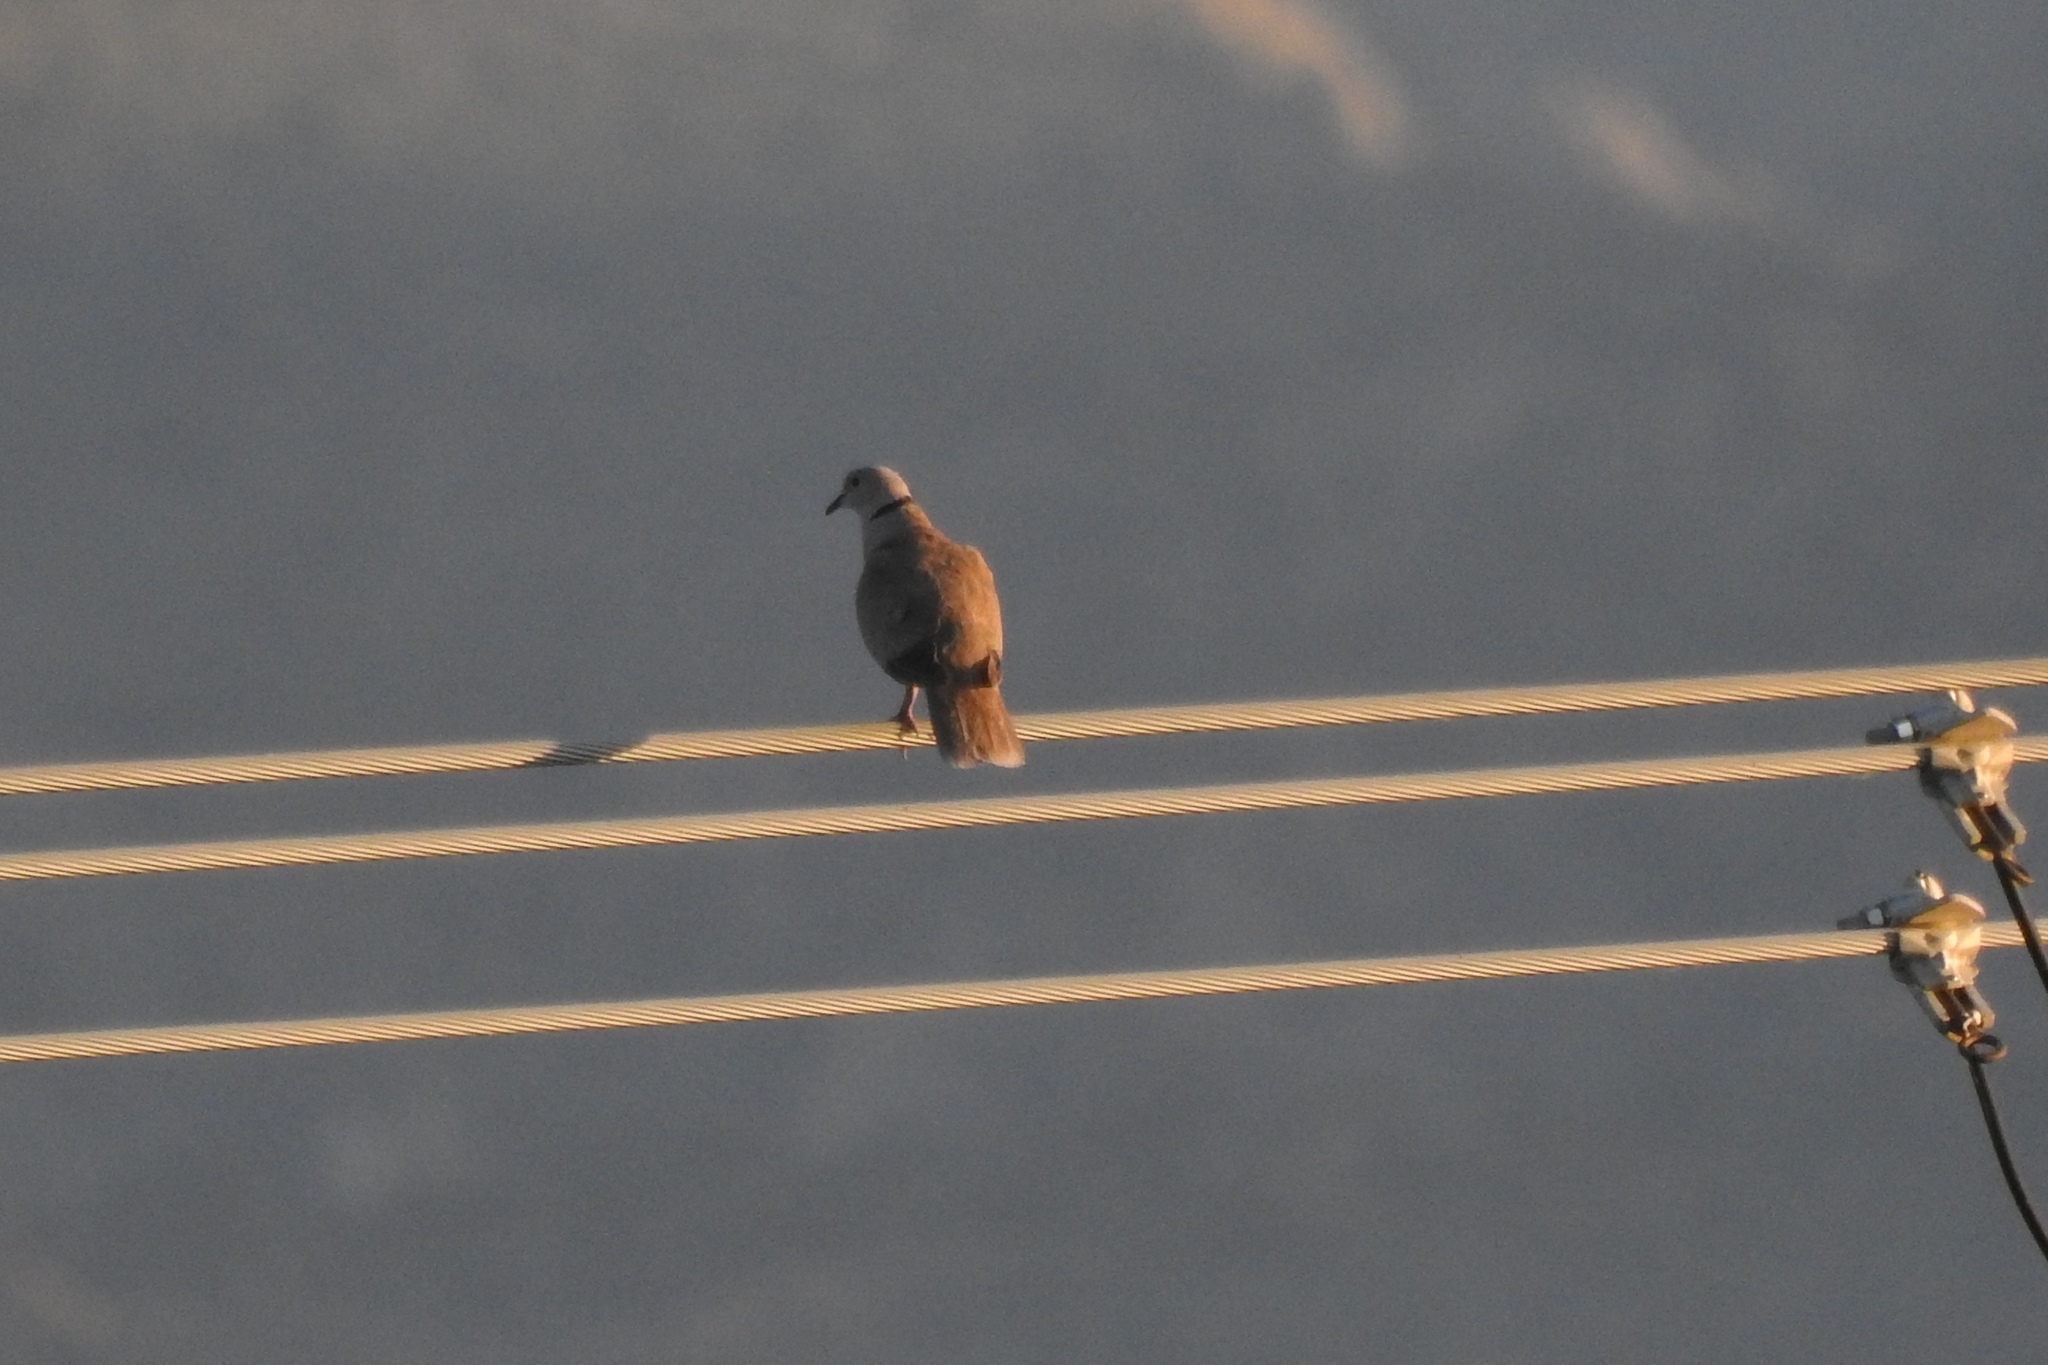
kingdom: Animalia
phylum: Chordata
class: Aves
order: Columbiformes
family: Columbidae
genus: Streptopelia
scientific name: Streptopelia decaocto
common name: Eurasian collared dove
